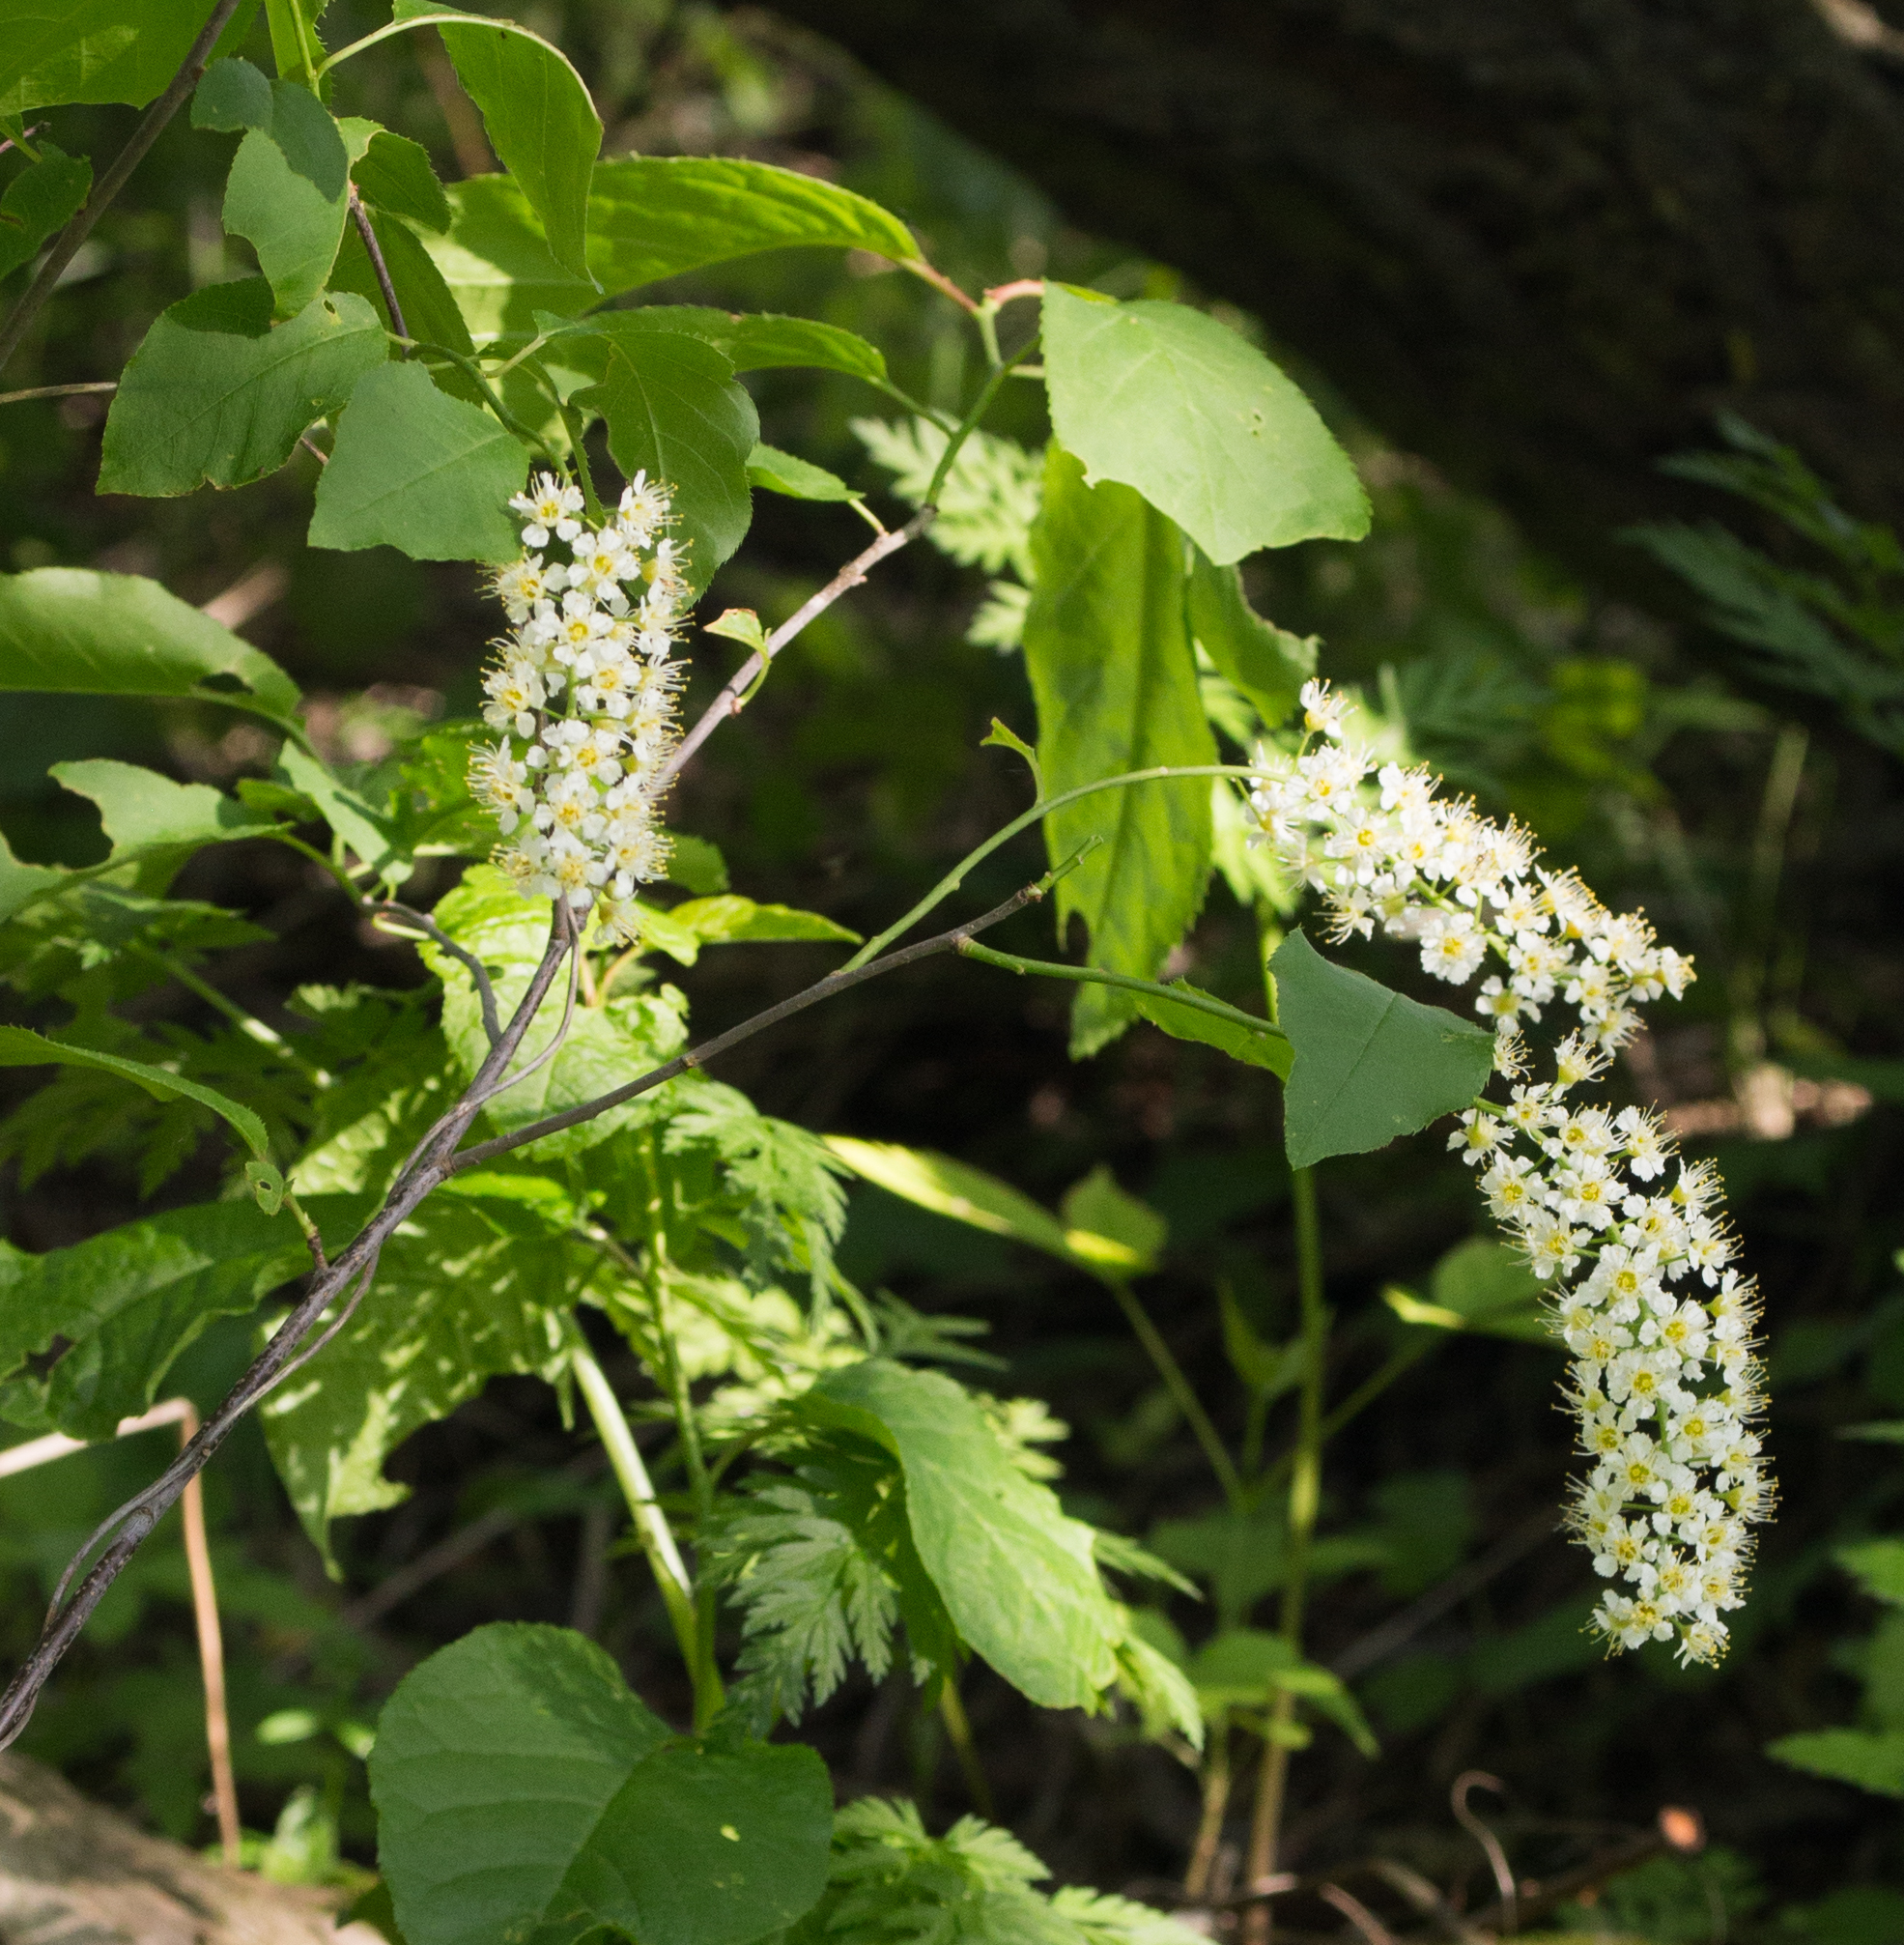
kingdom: Plantae
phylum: Tracheophyta
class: Magnoliopsida
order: Rosales
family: Rosaceae
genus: Prunus
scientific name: Prunus padus
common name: Bird cherry
